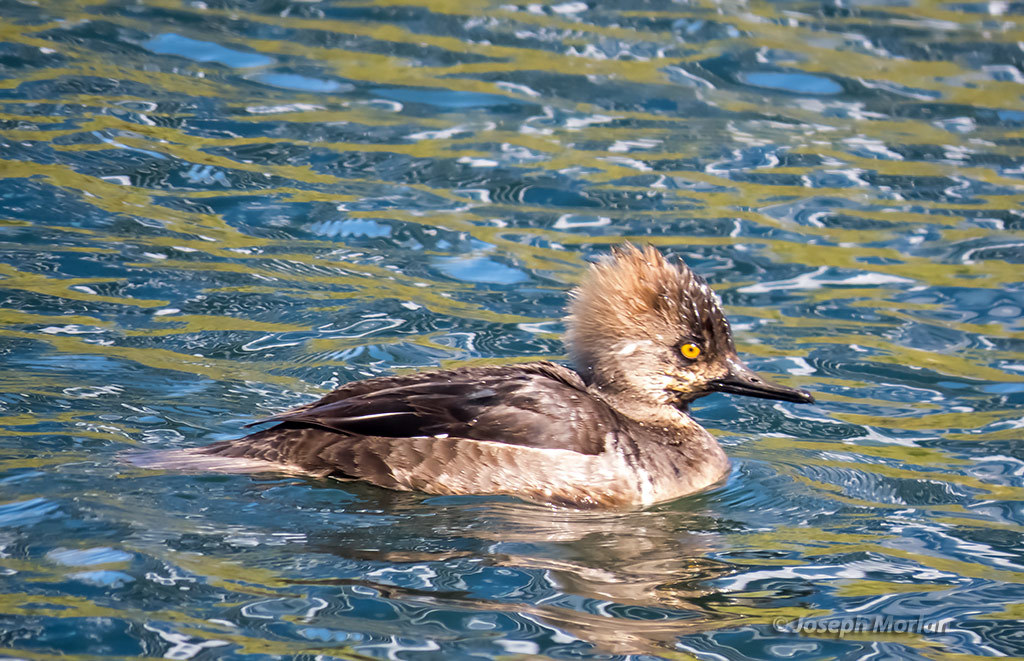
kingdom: Animalia
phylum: Chordata
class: Aves
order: Anseriformes
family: Anatidae
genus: Lophodytes
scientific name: Lophodytes cucullatus
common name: Hooded merganser
